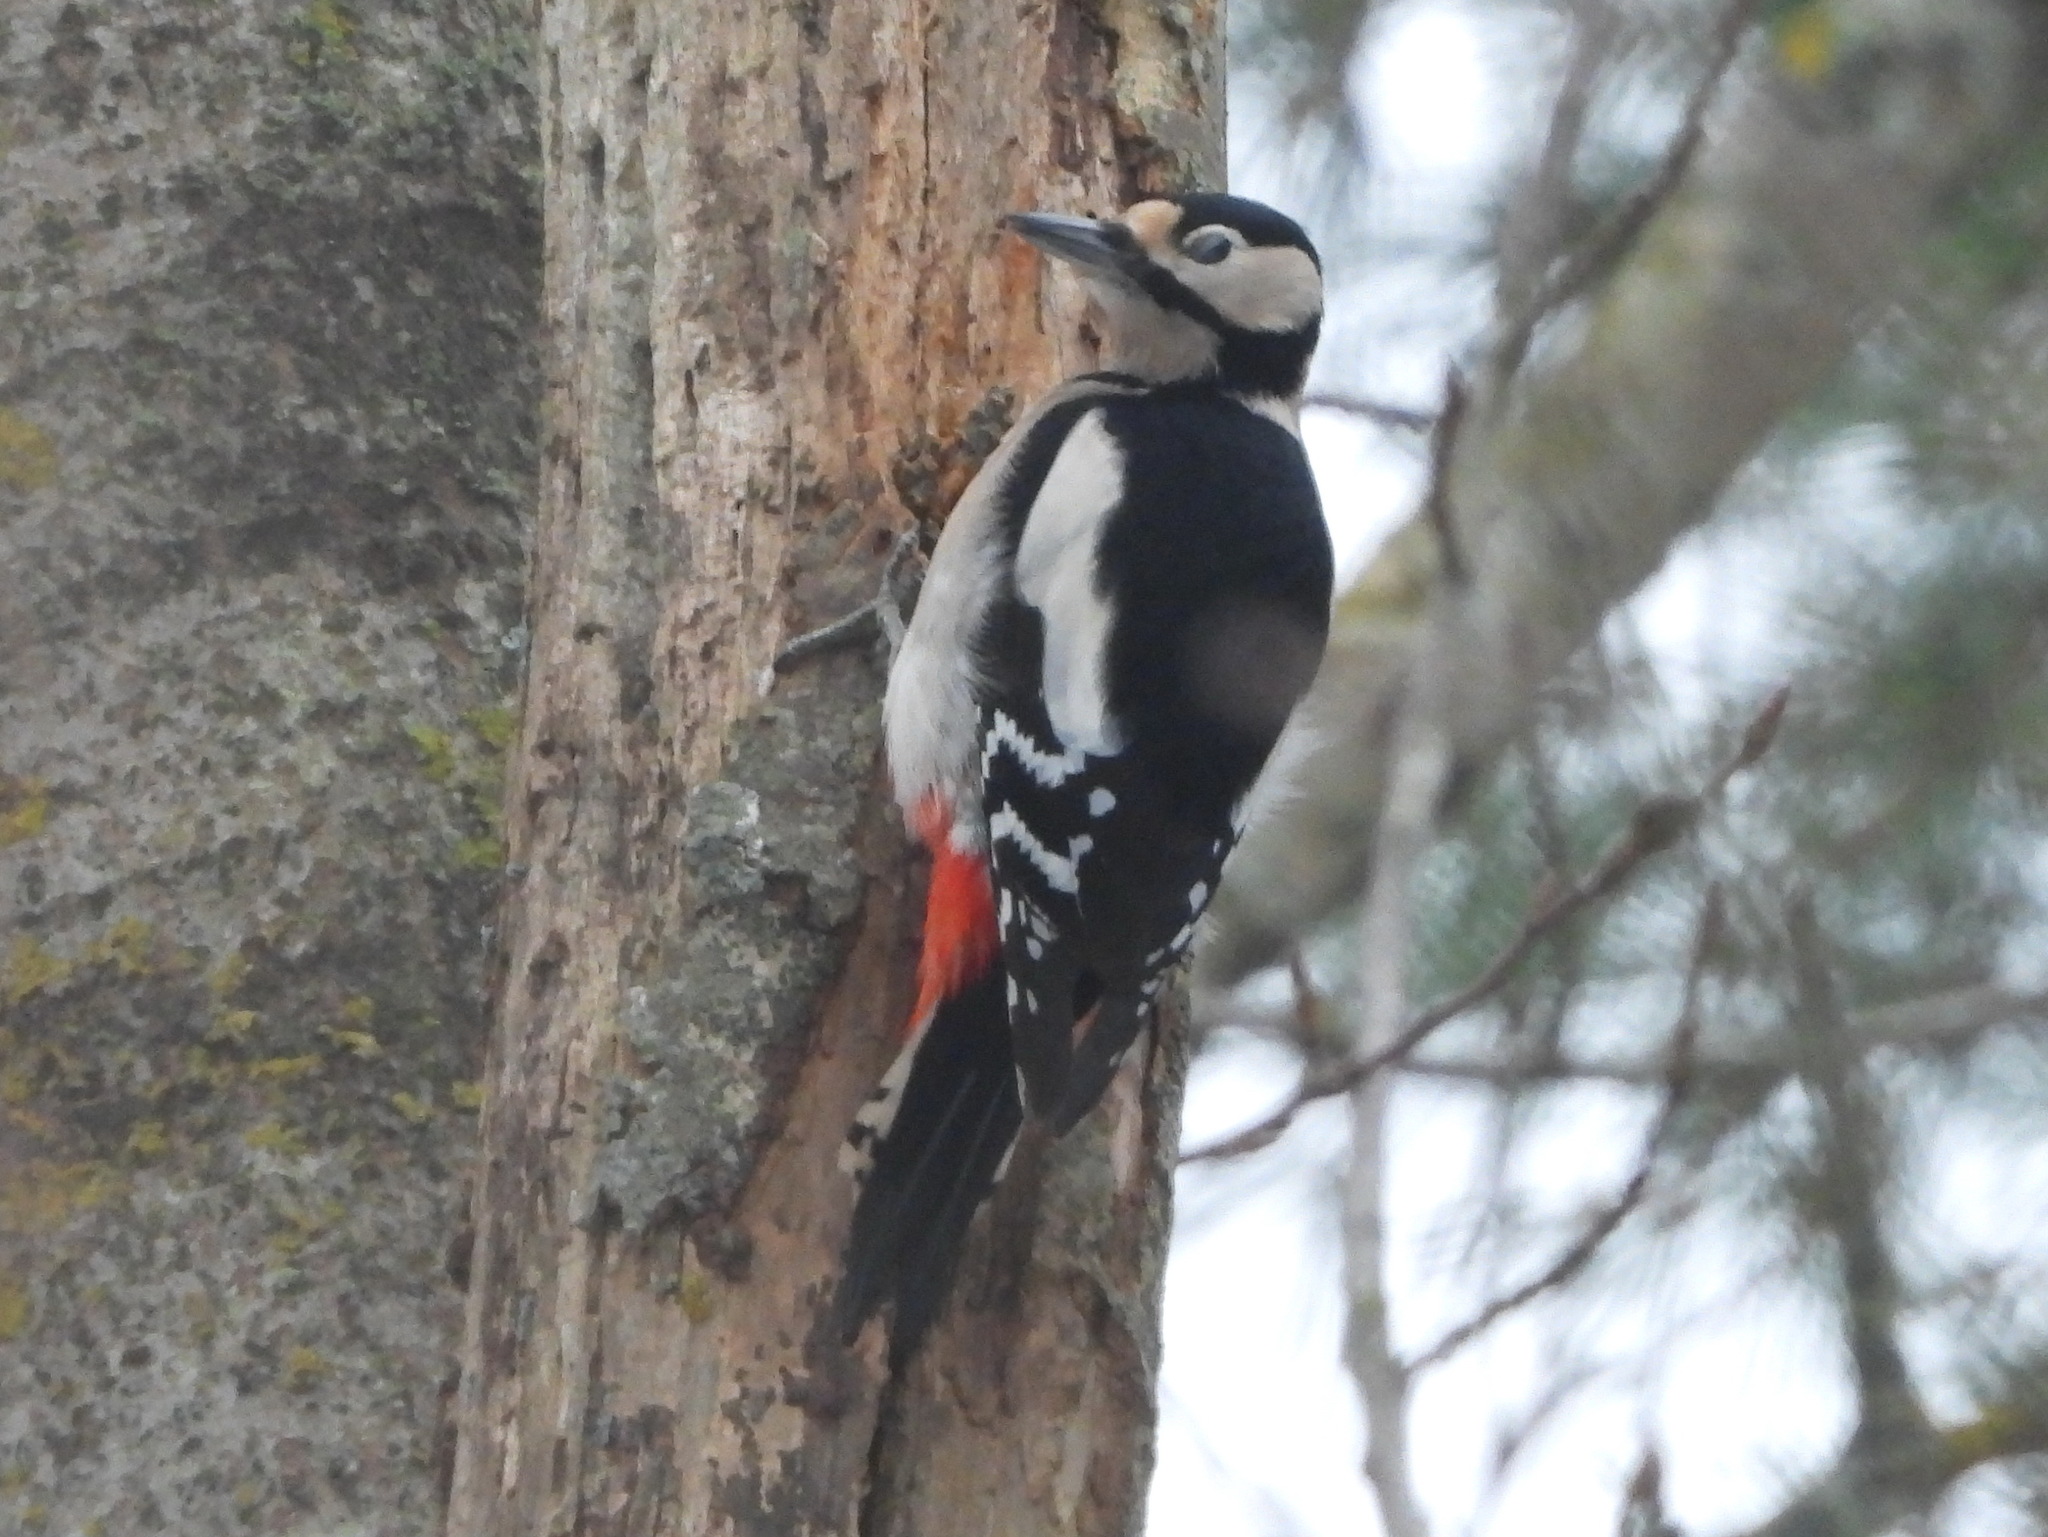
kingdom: Animalia
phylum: Chordata
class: Aves
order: Piciformes
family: Picidae
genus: Dendrocopos
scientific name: Dendrocopos major
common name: Great spotted woodpecker
